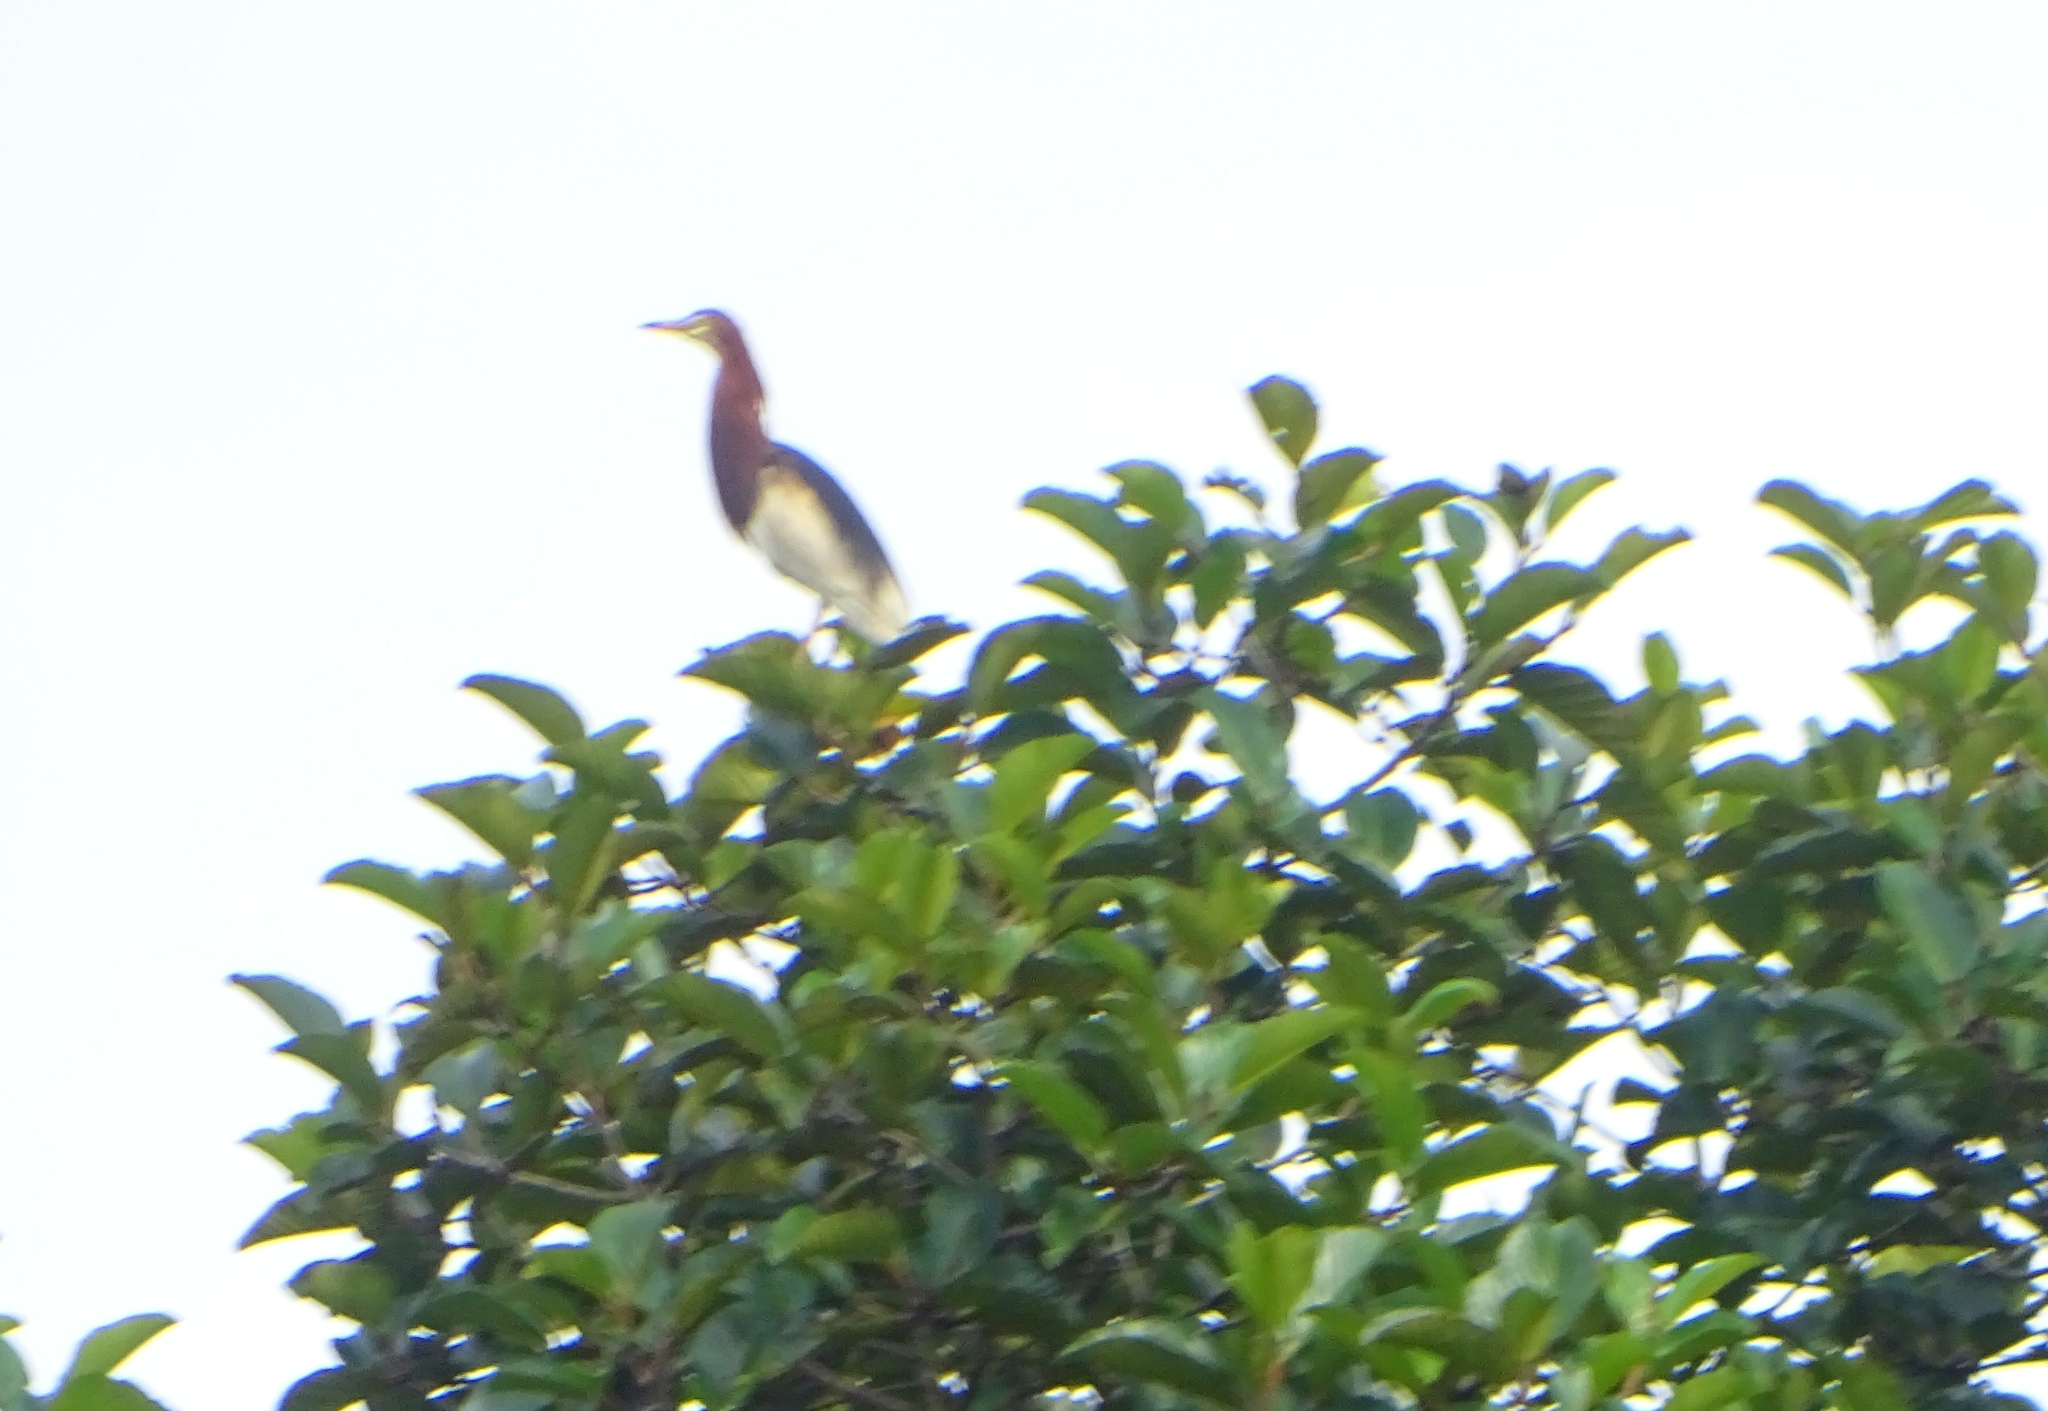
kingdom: Animalia
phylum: Chordata
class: Aves
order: Pelecaniformes
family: Ardeidae
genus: Ardeola
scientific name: Ardeola bacchus
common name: Chinese pond heron
